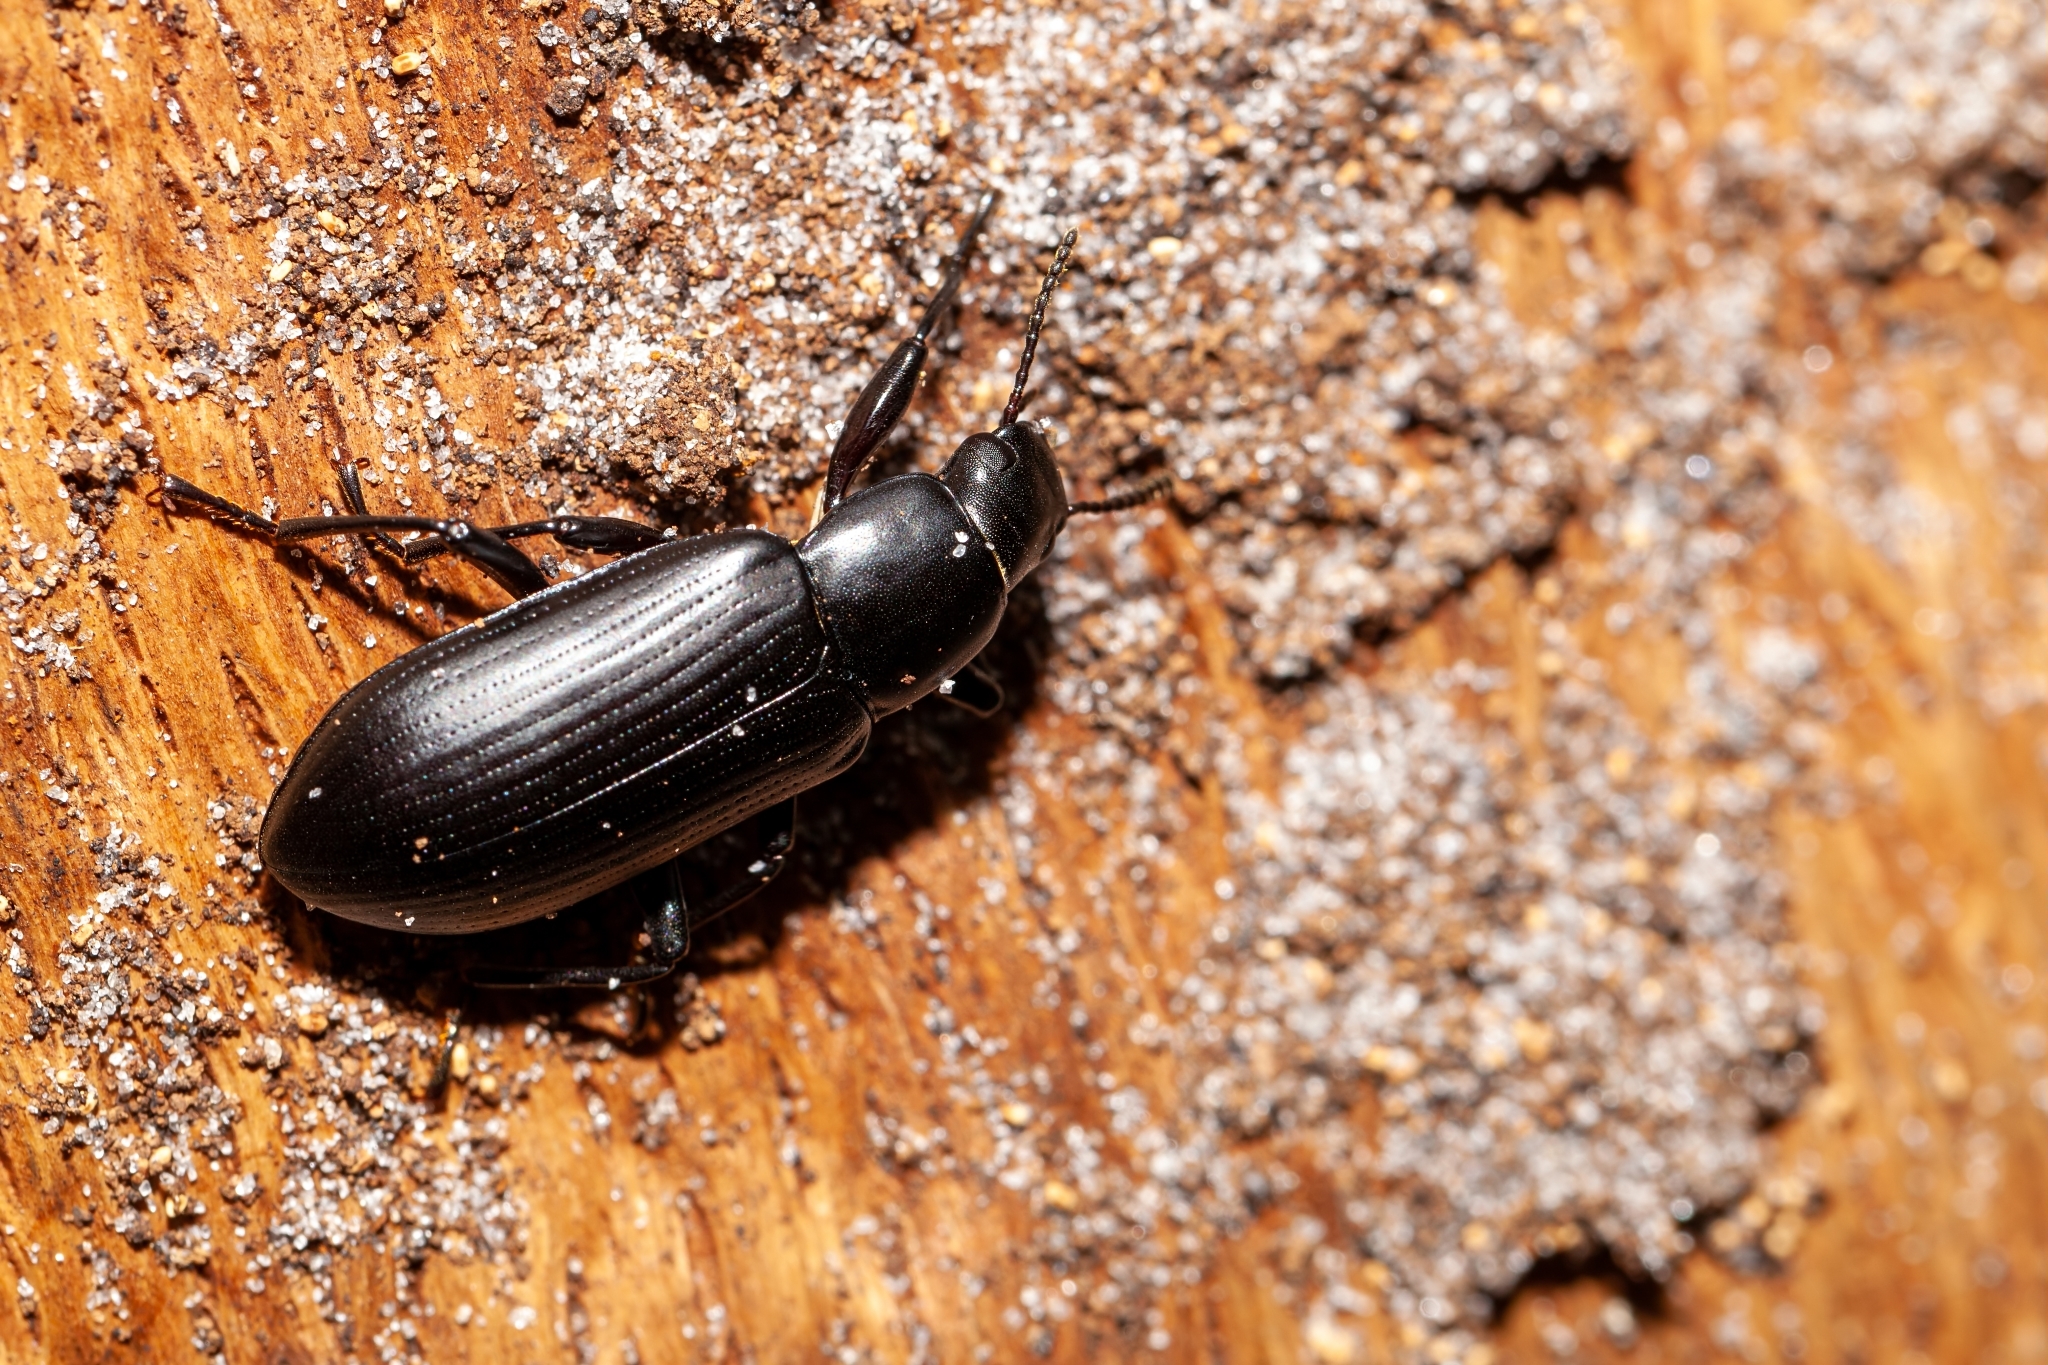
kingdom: Animalia
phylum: Arthropoda
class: Insecta
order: Coleoptera
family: Tenebrionidae
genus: Alobates
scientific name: Alobates
